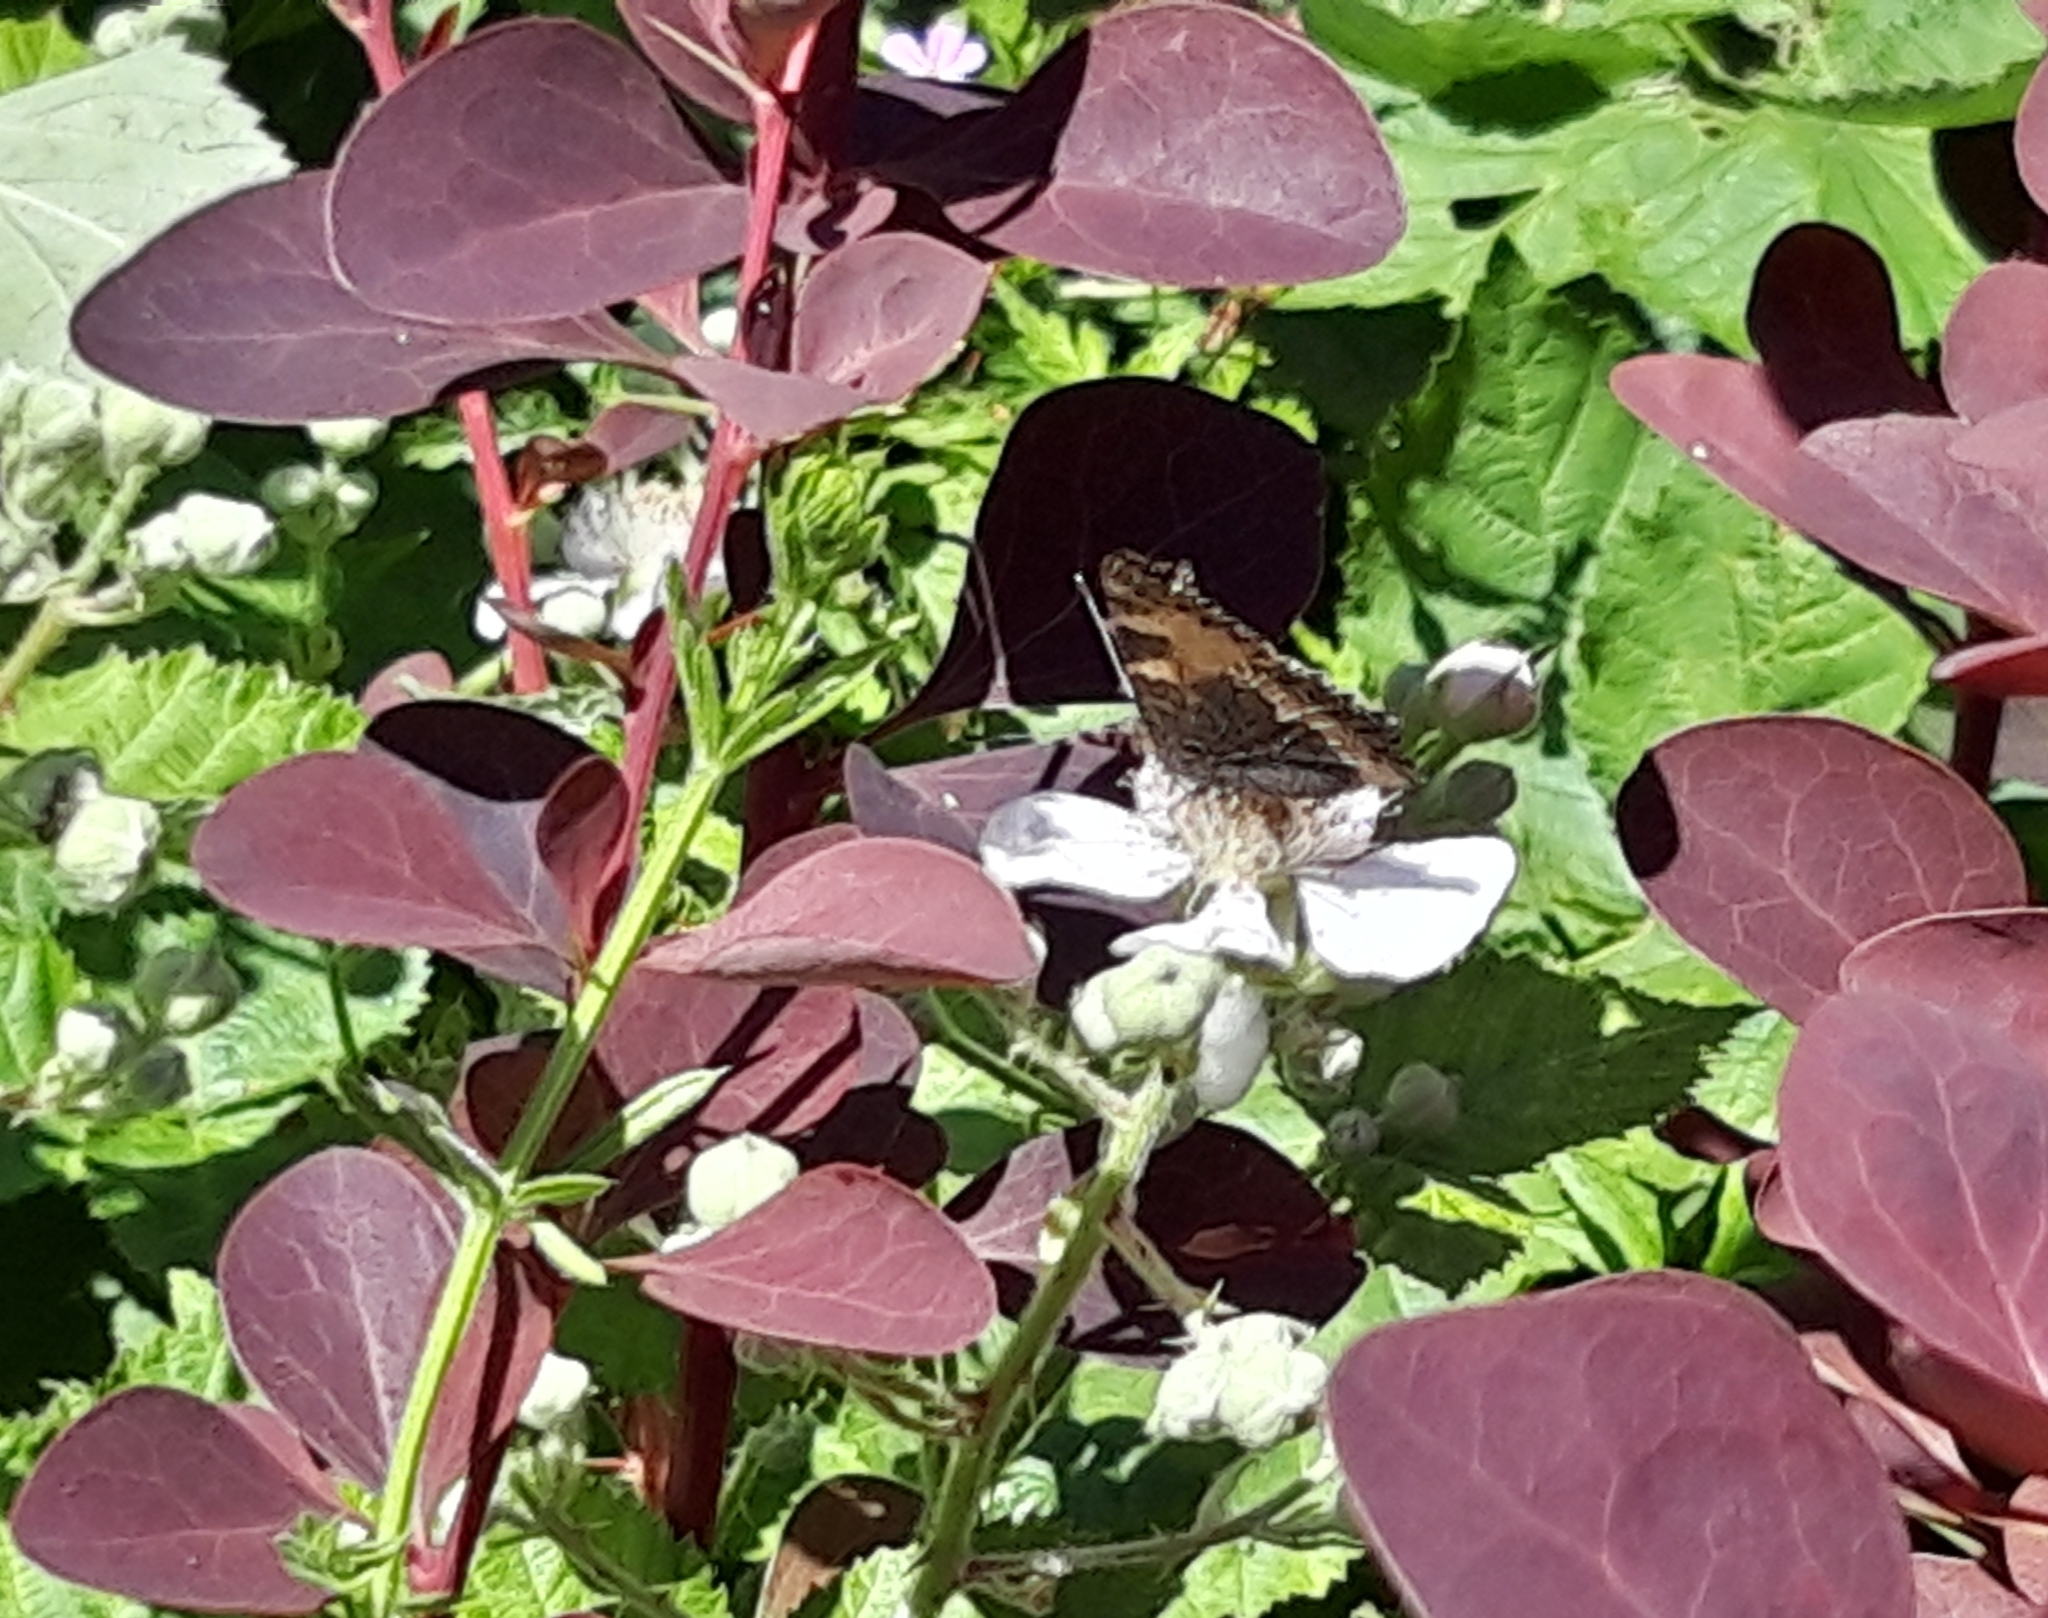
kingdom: Animalia
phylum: Arthropoda
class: Insecta
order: Lepidoptera
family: Nymphalidae
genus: Aglais
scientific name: Aglais urticae
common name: Small tortoiseshell
